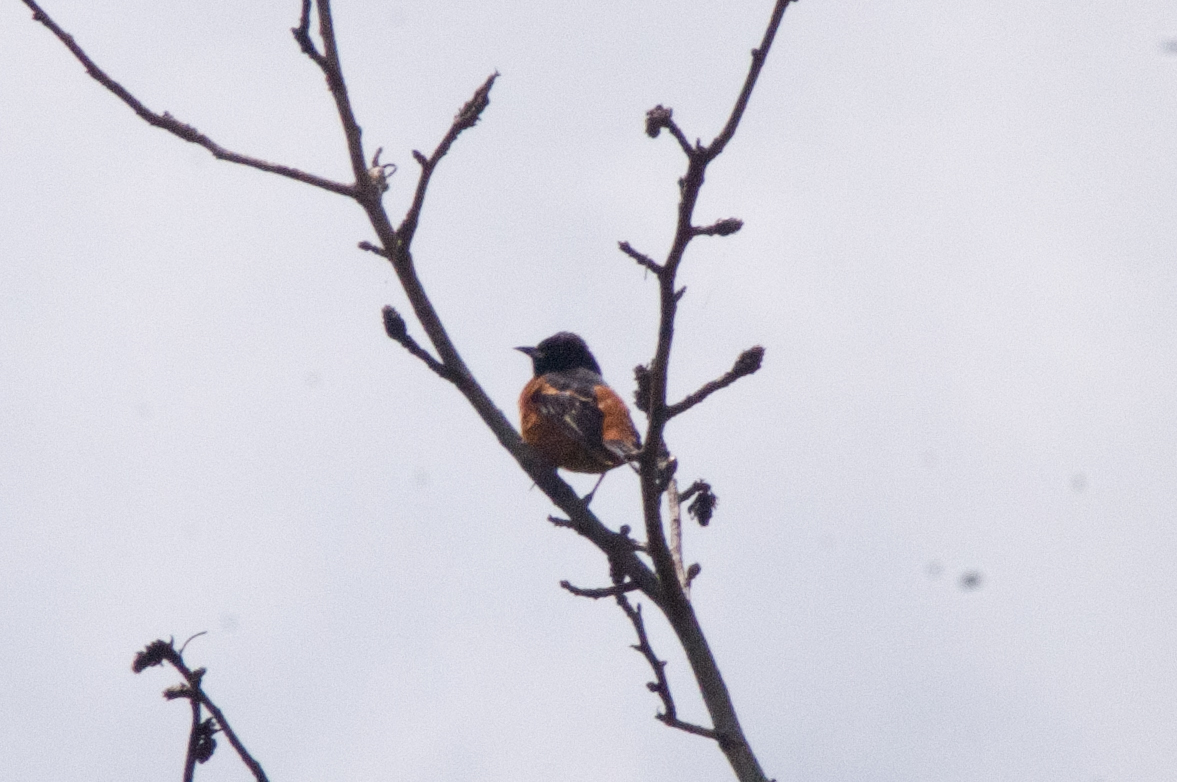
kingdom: Animalia
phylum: Chordata
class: Aves
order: Passeriformes
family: Icteridae
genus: Icterus
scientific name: Icterus spurius
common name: Orchard oriole
